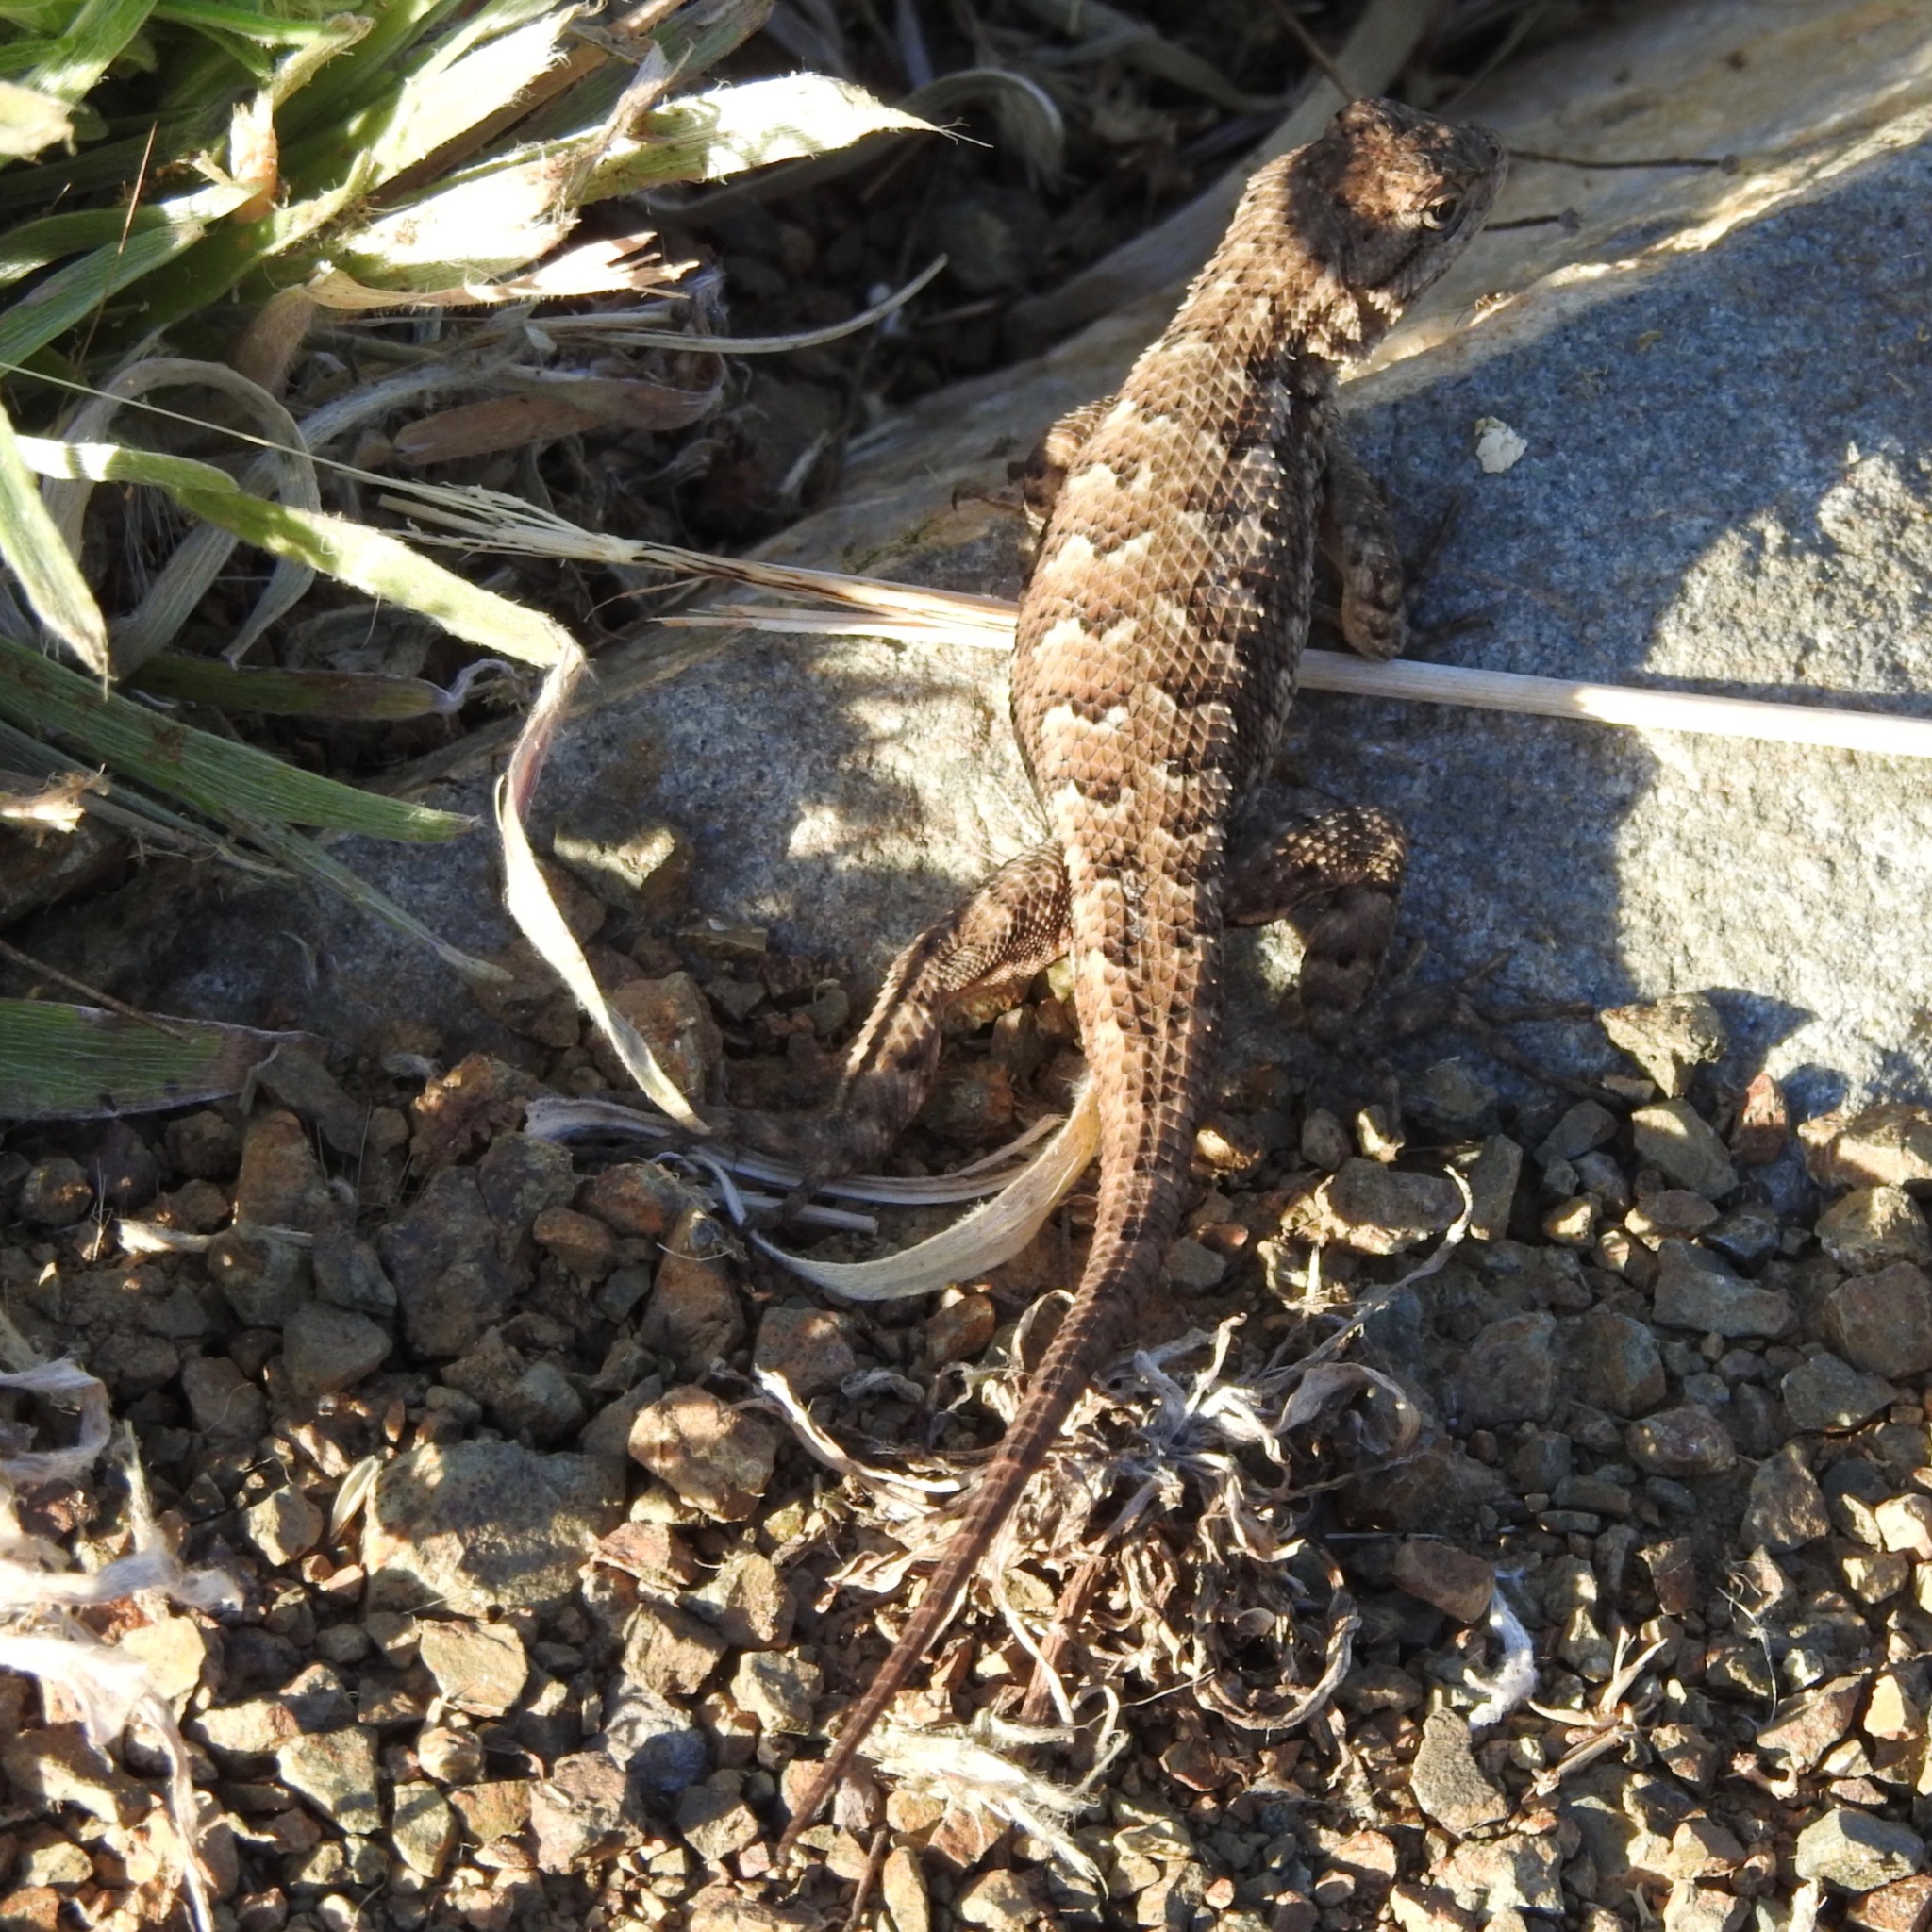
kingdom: Animalia
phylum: Chordata
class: Squamata
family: Phrynosomatidae
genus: Sceloporus
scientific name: Sceloporus occidentalis
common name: Western fence lizard
